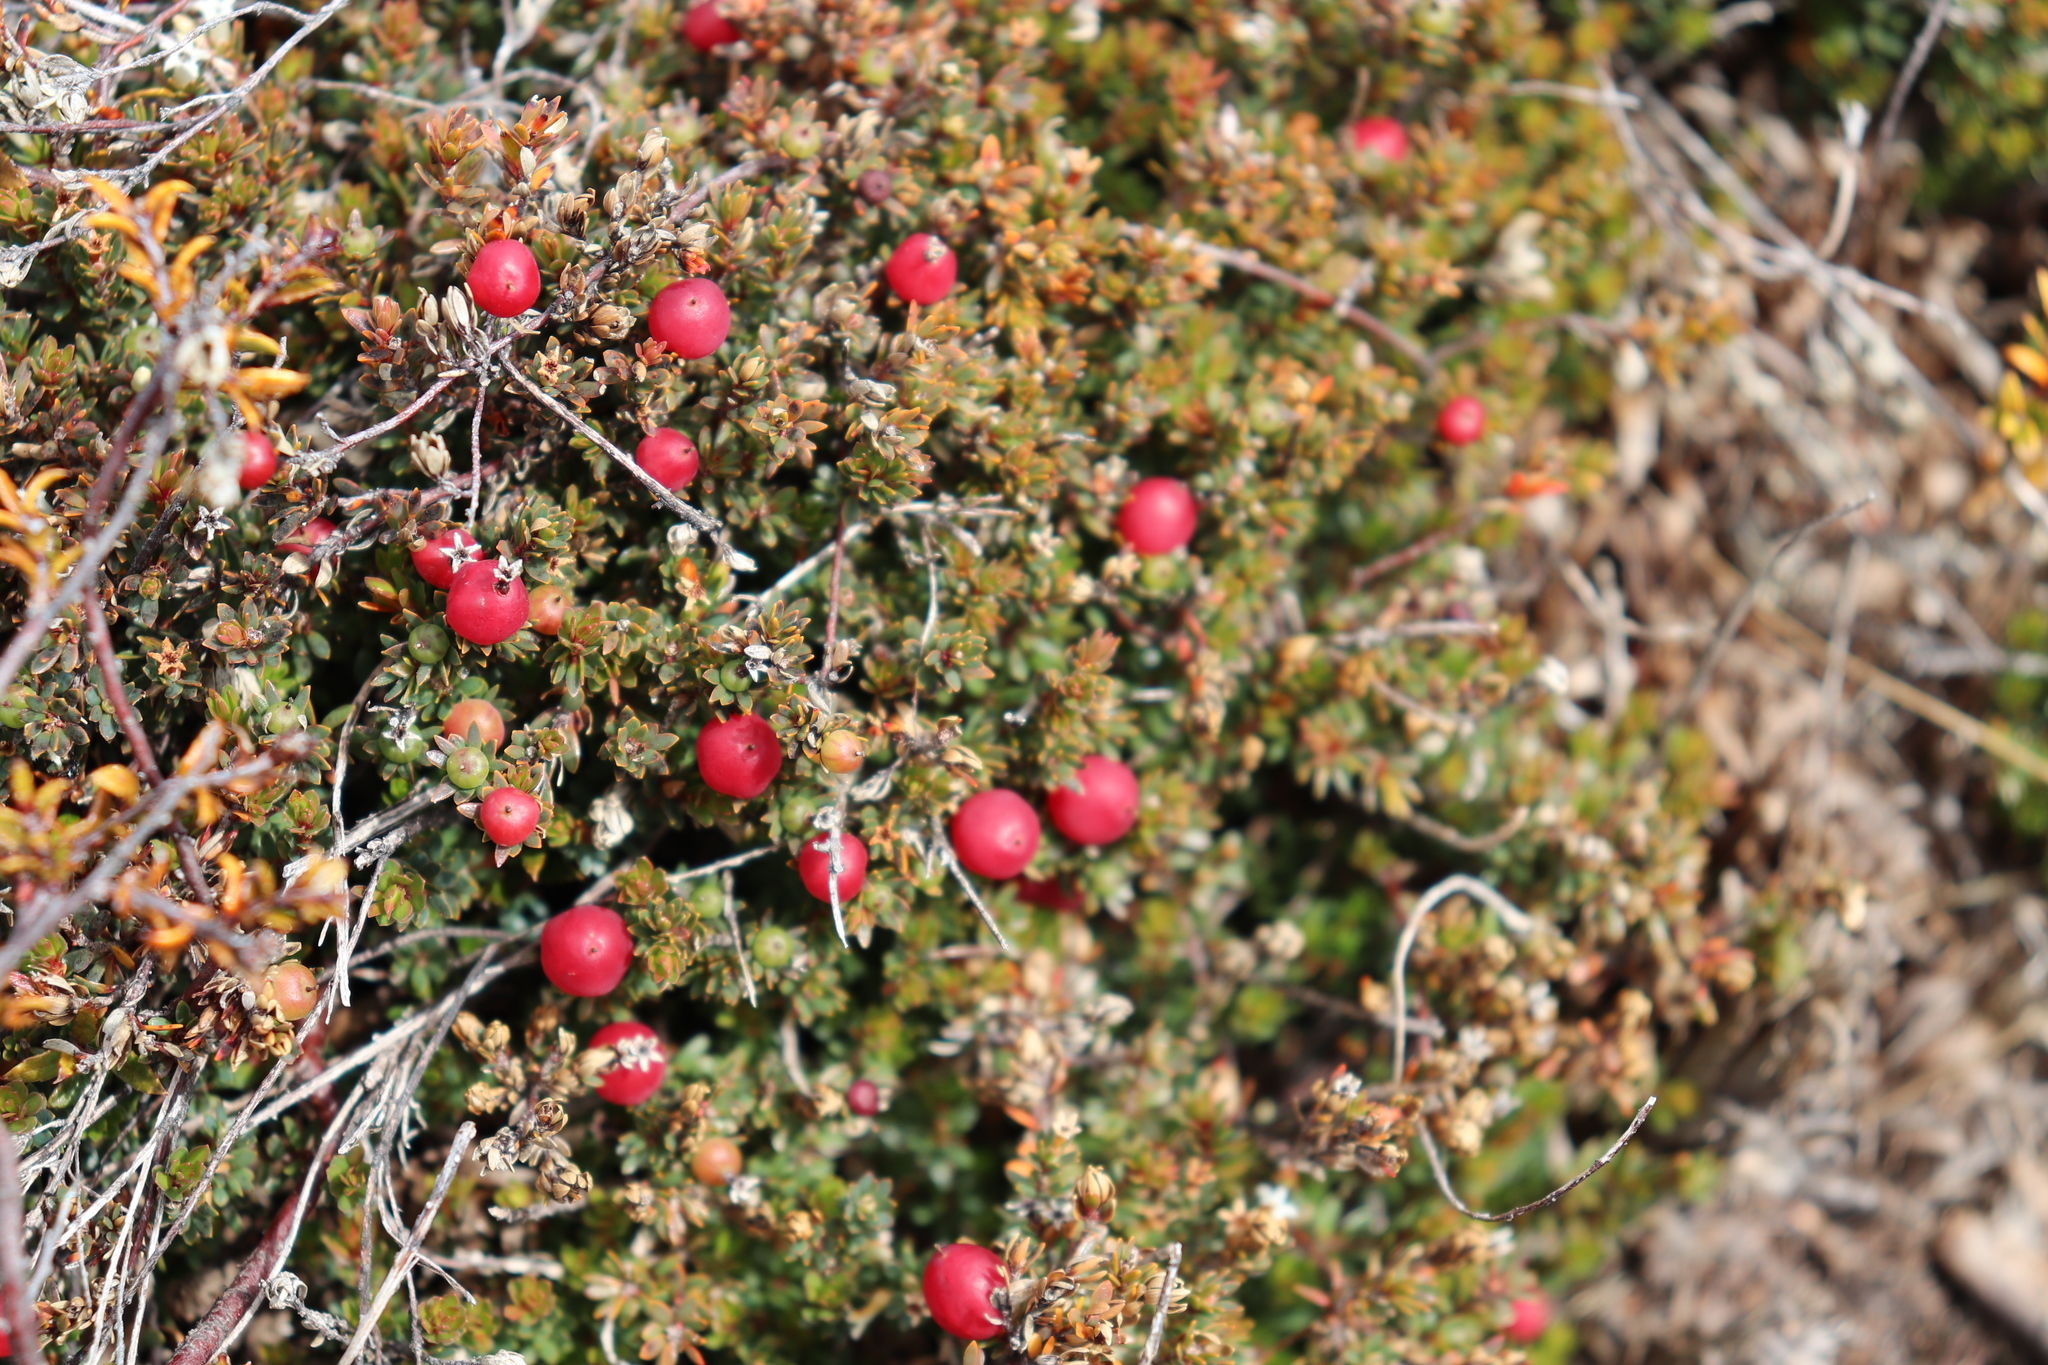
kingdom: Plantae
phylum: Tracheophyta
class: Magnoliopsida
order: Ericales
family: Ericaceae
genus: Pentachondra
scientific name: Pentachondra pumila
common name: Carpet-heath
